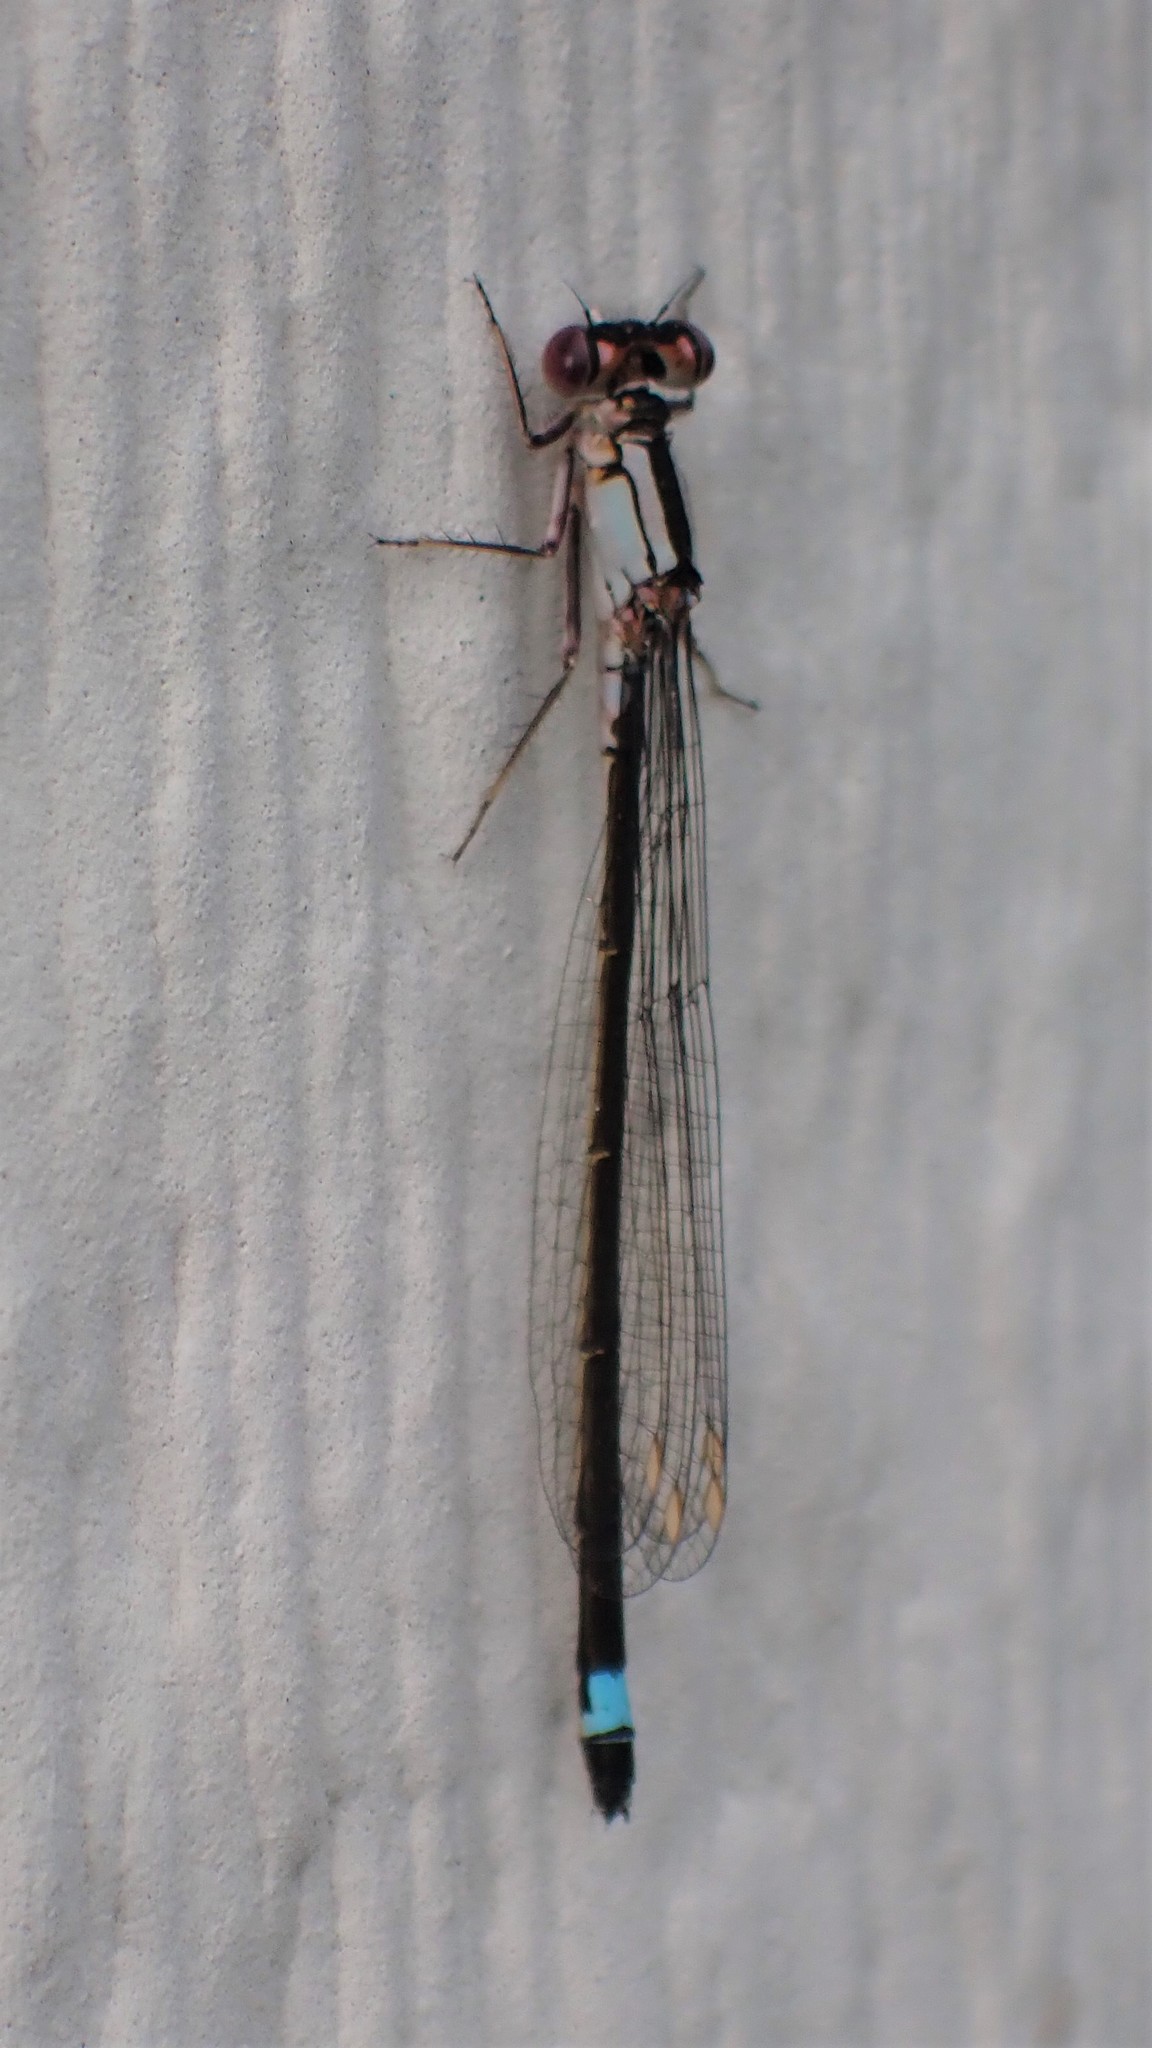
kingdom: Animalia
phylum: Arthropoda
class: Insecta
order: Odonata
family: Coenagrionidae
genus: Ischnura
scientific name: Ischnura cervula
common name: Pacific forktail
